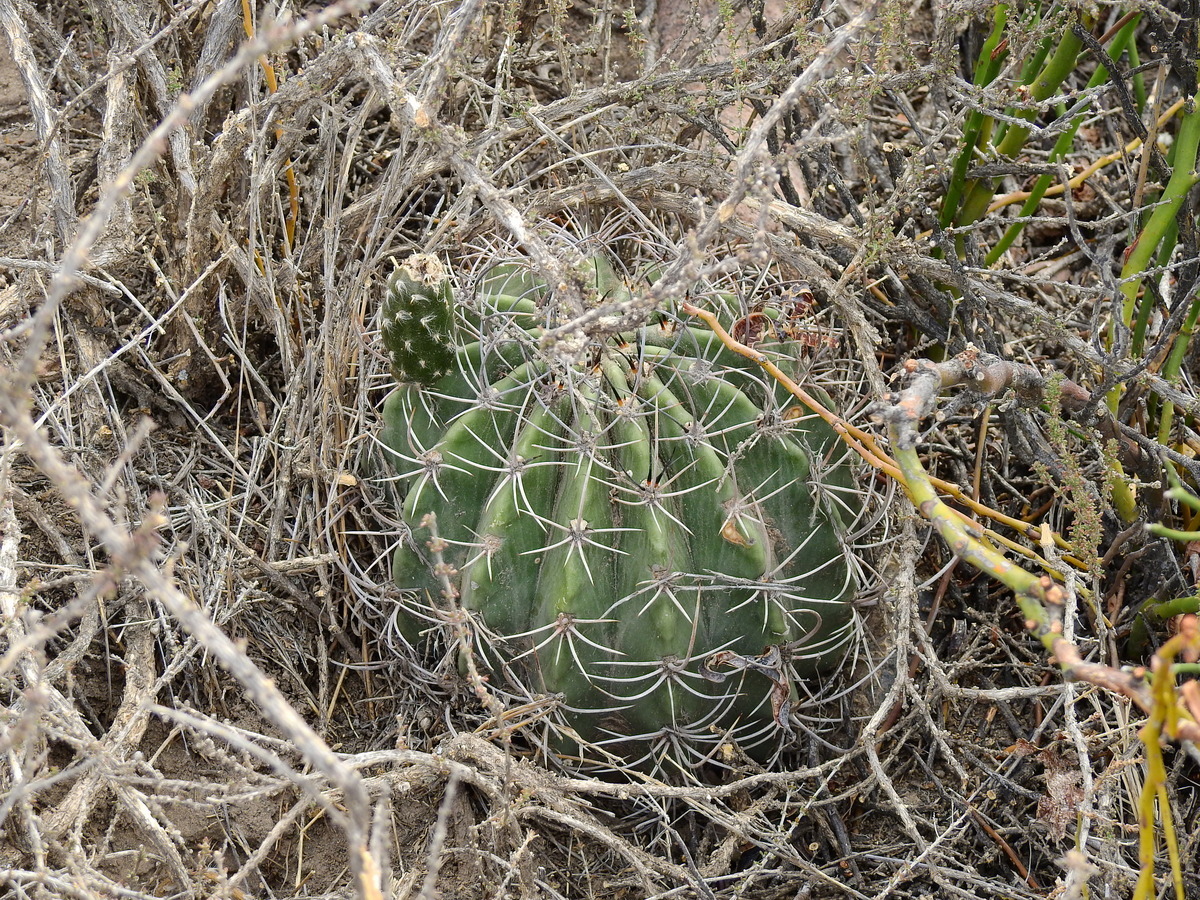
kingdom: Plantae
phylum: Tracheophyta
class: Magnoliopsida
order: Caryophyllales
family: Cactaceae
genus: Acanthocalycium
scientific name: Acanthocalycium leucanthum
